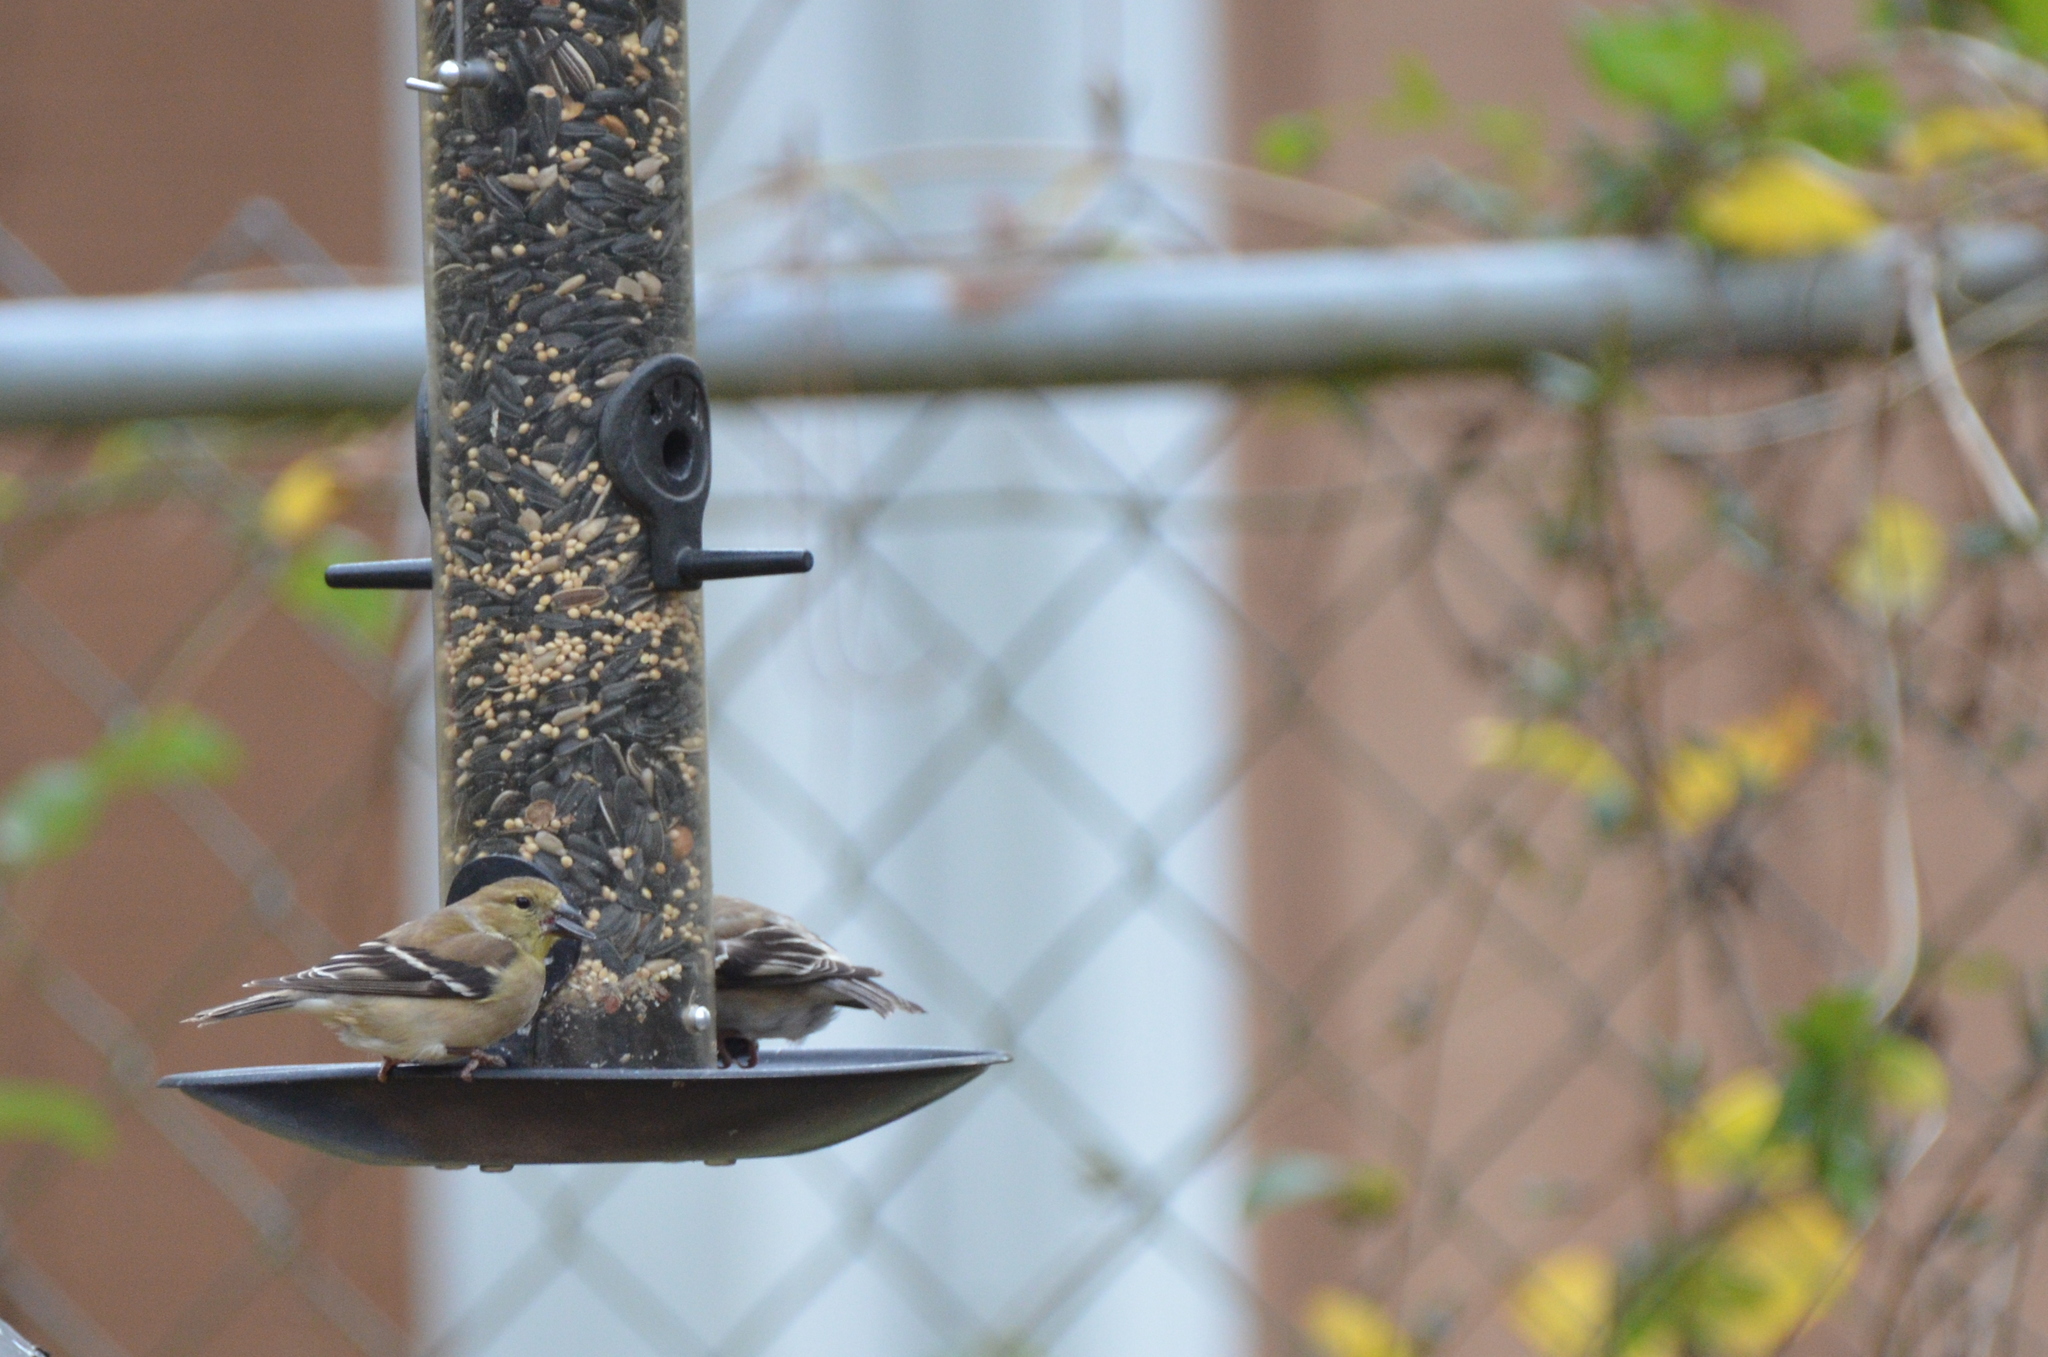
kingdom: Animalia
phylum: Chordata
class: Aves
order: Passeriformes
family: Fringillidae
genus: Spinus
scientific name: Spinus tristis
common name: American goldfinch
